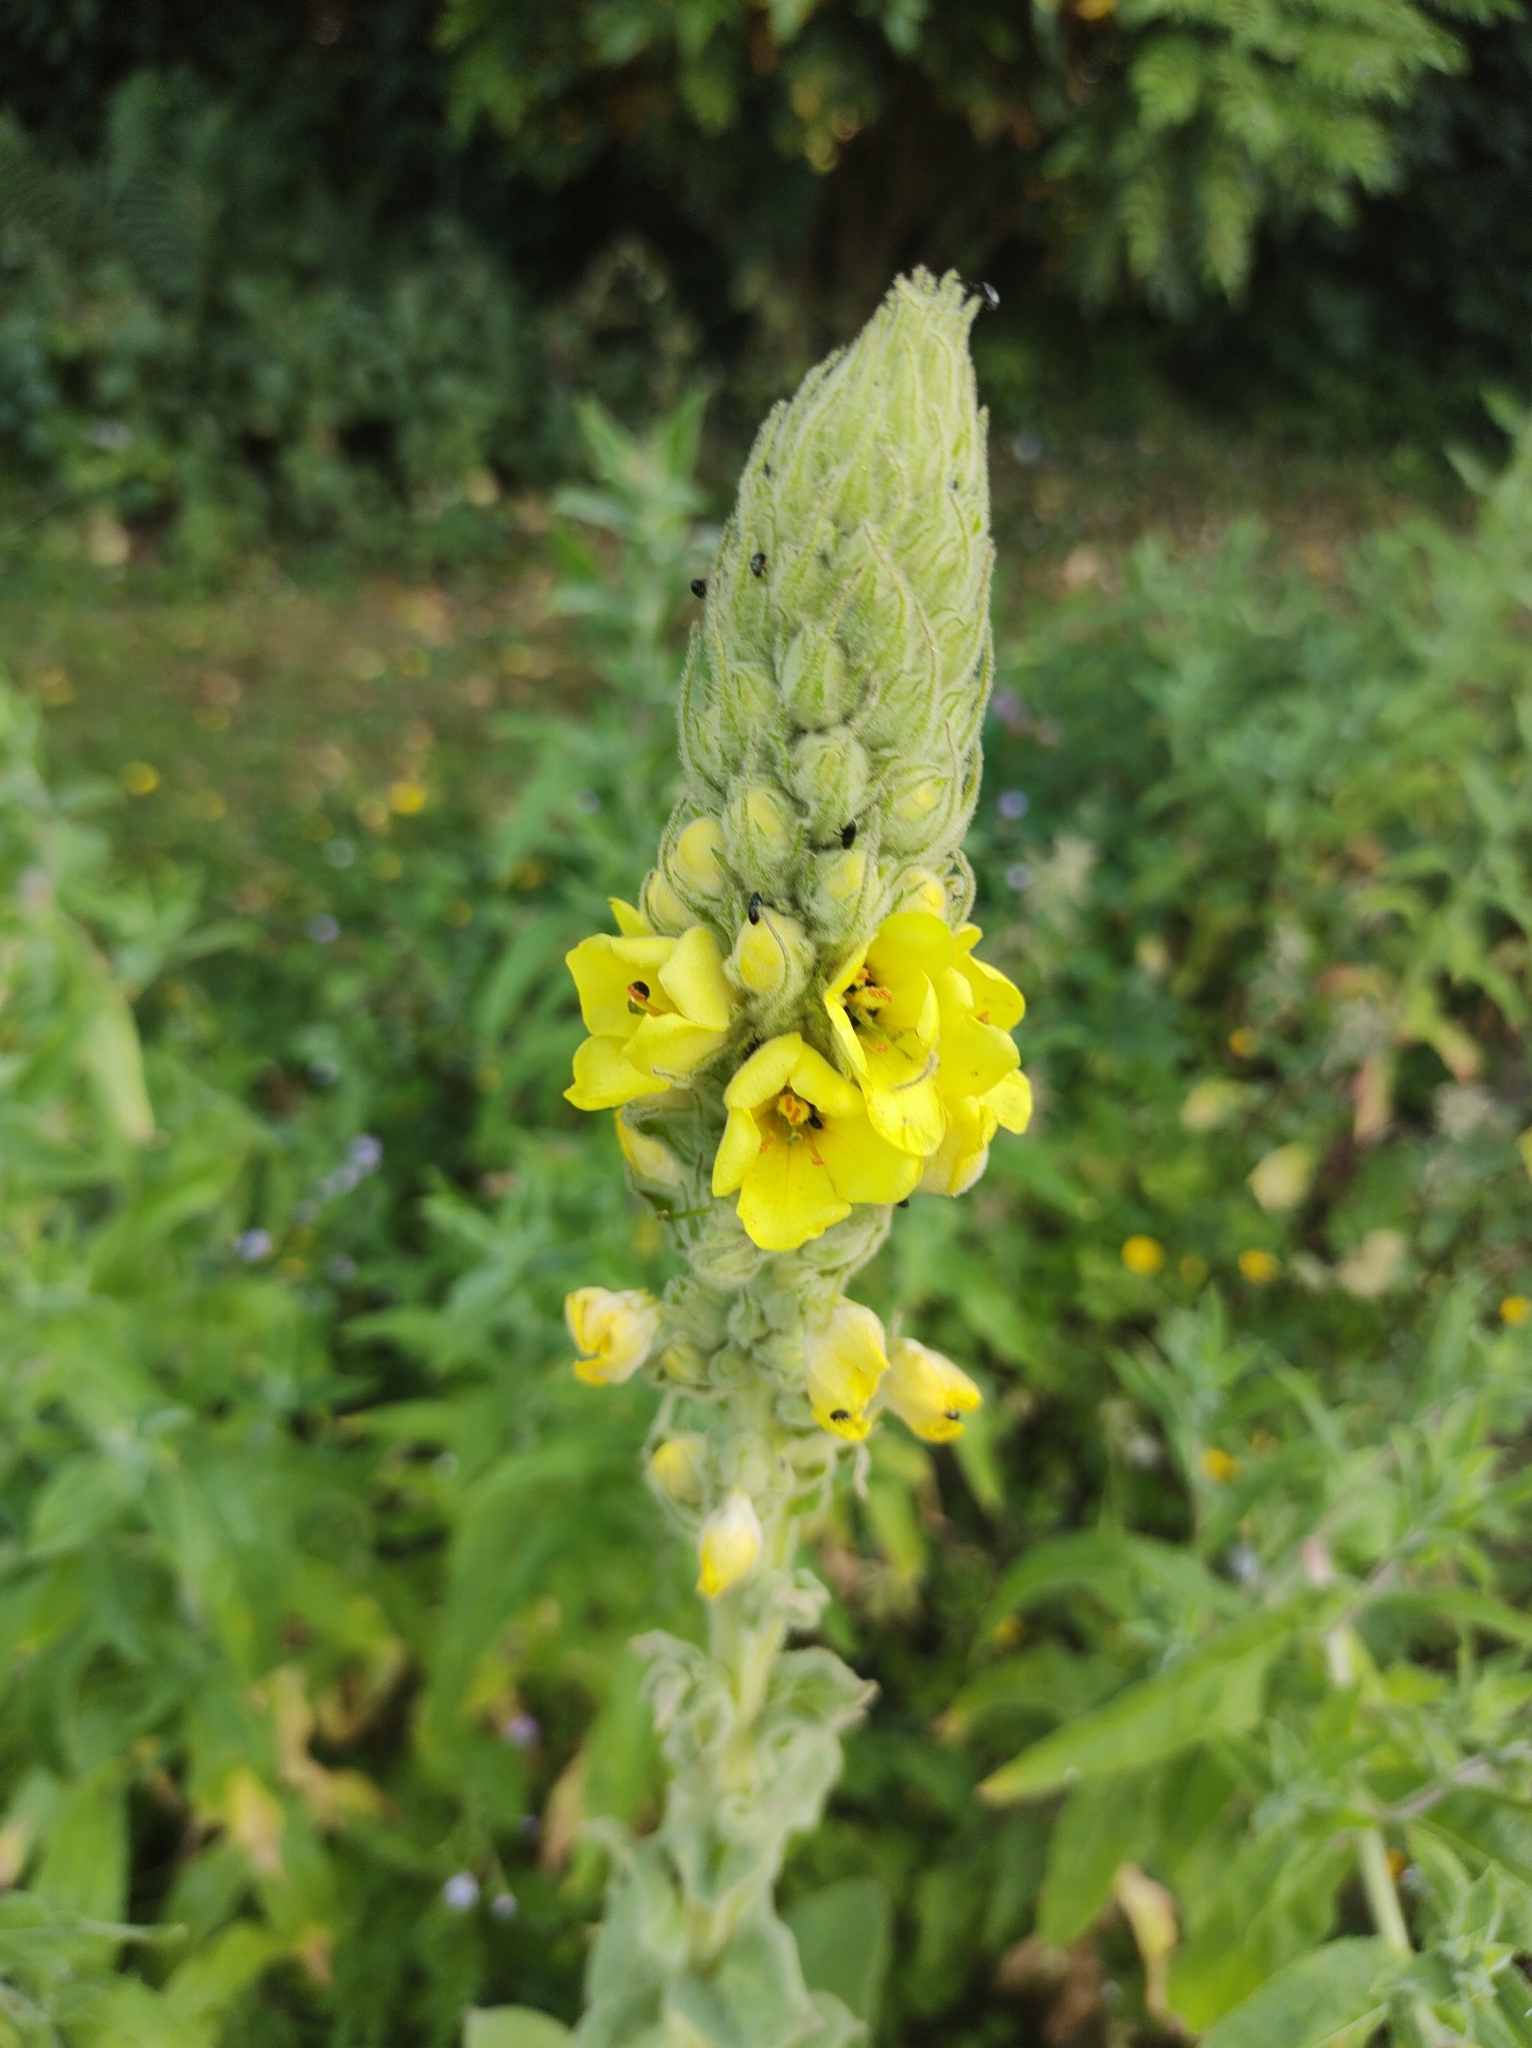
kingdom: Plantae
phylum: Tracheophyta
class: Magnoliopsida
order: Lamiales
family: Scrophulariaceae
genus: Verbascum
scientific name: Verbascum thapsus
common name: Common mullein
